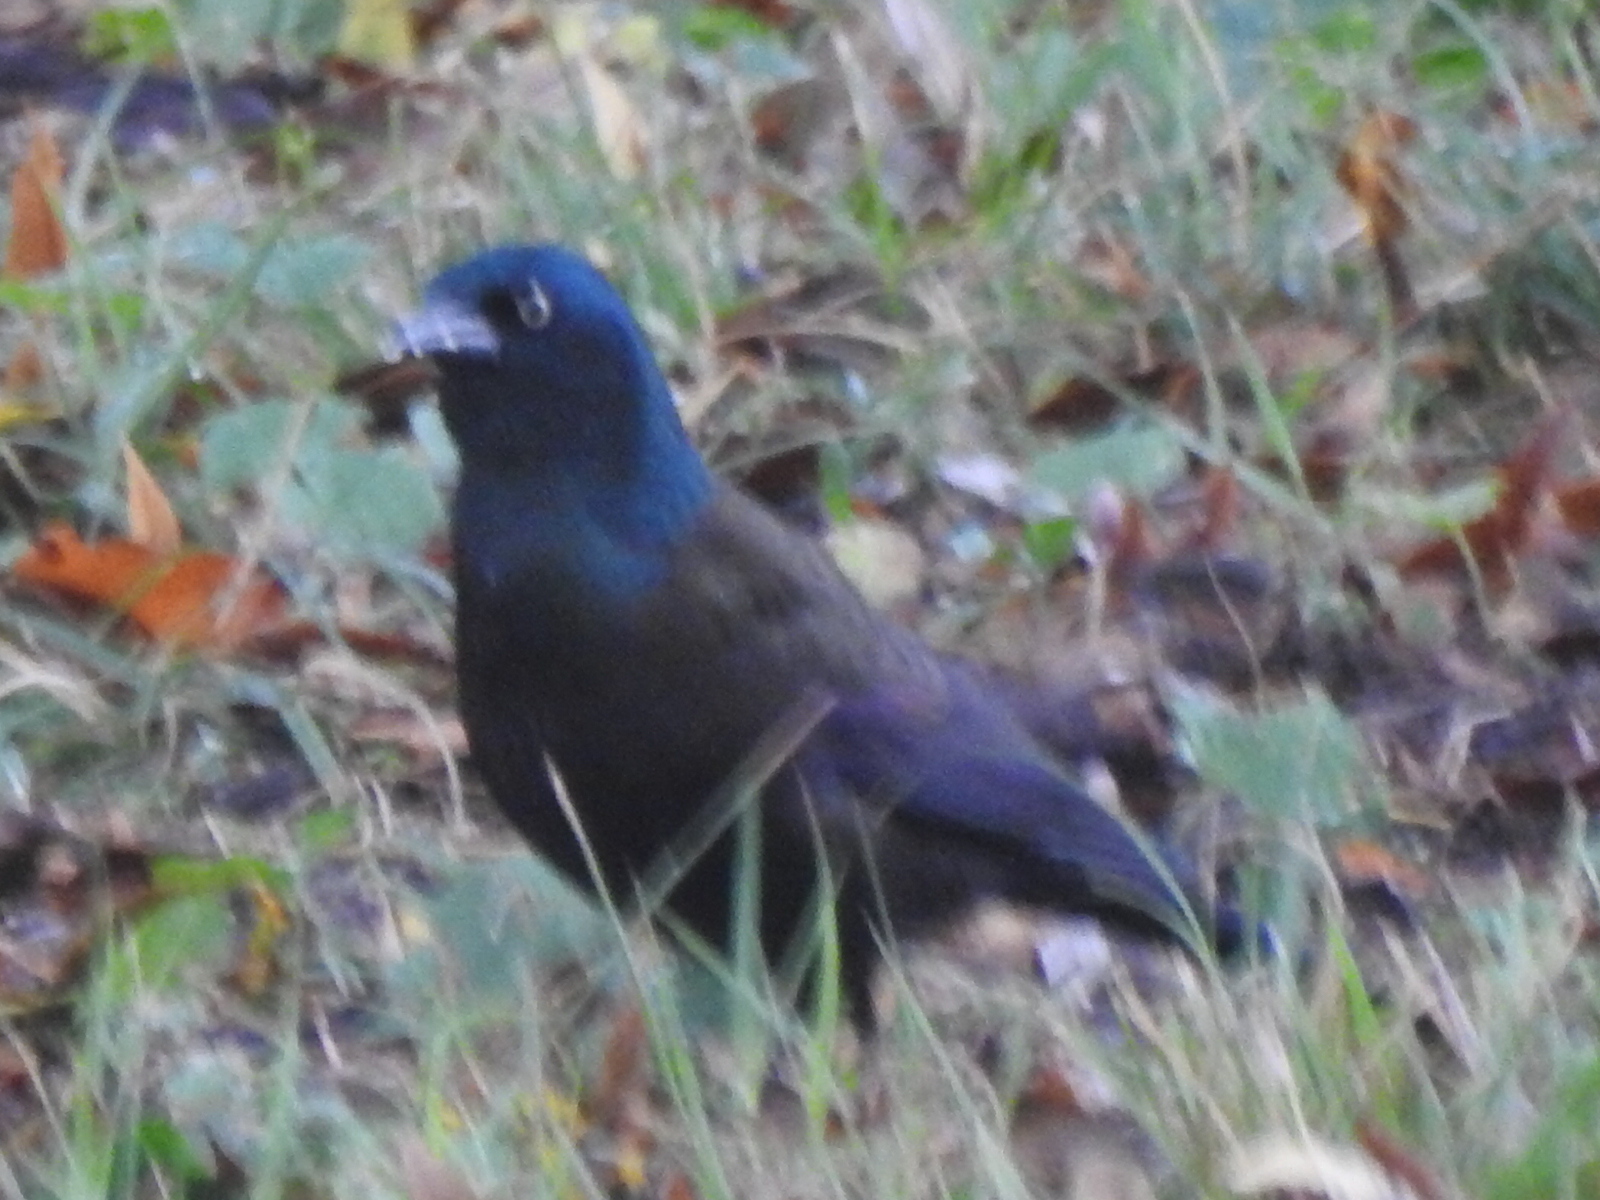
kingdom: Animalia
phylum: Chordata
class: Aves
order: Passeriformes
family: Icteridae
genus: Quiscalus
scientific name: Quiscalus quiscula
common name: Common grackle
